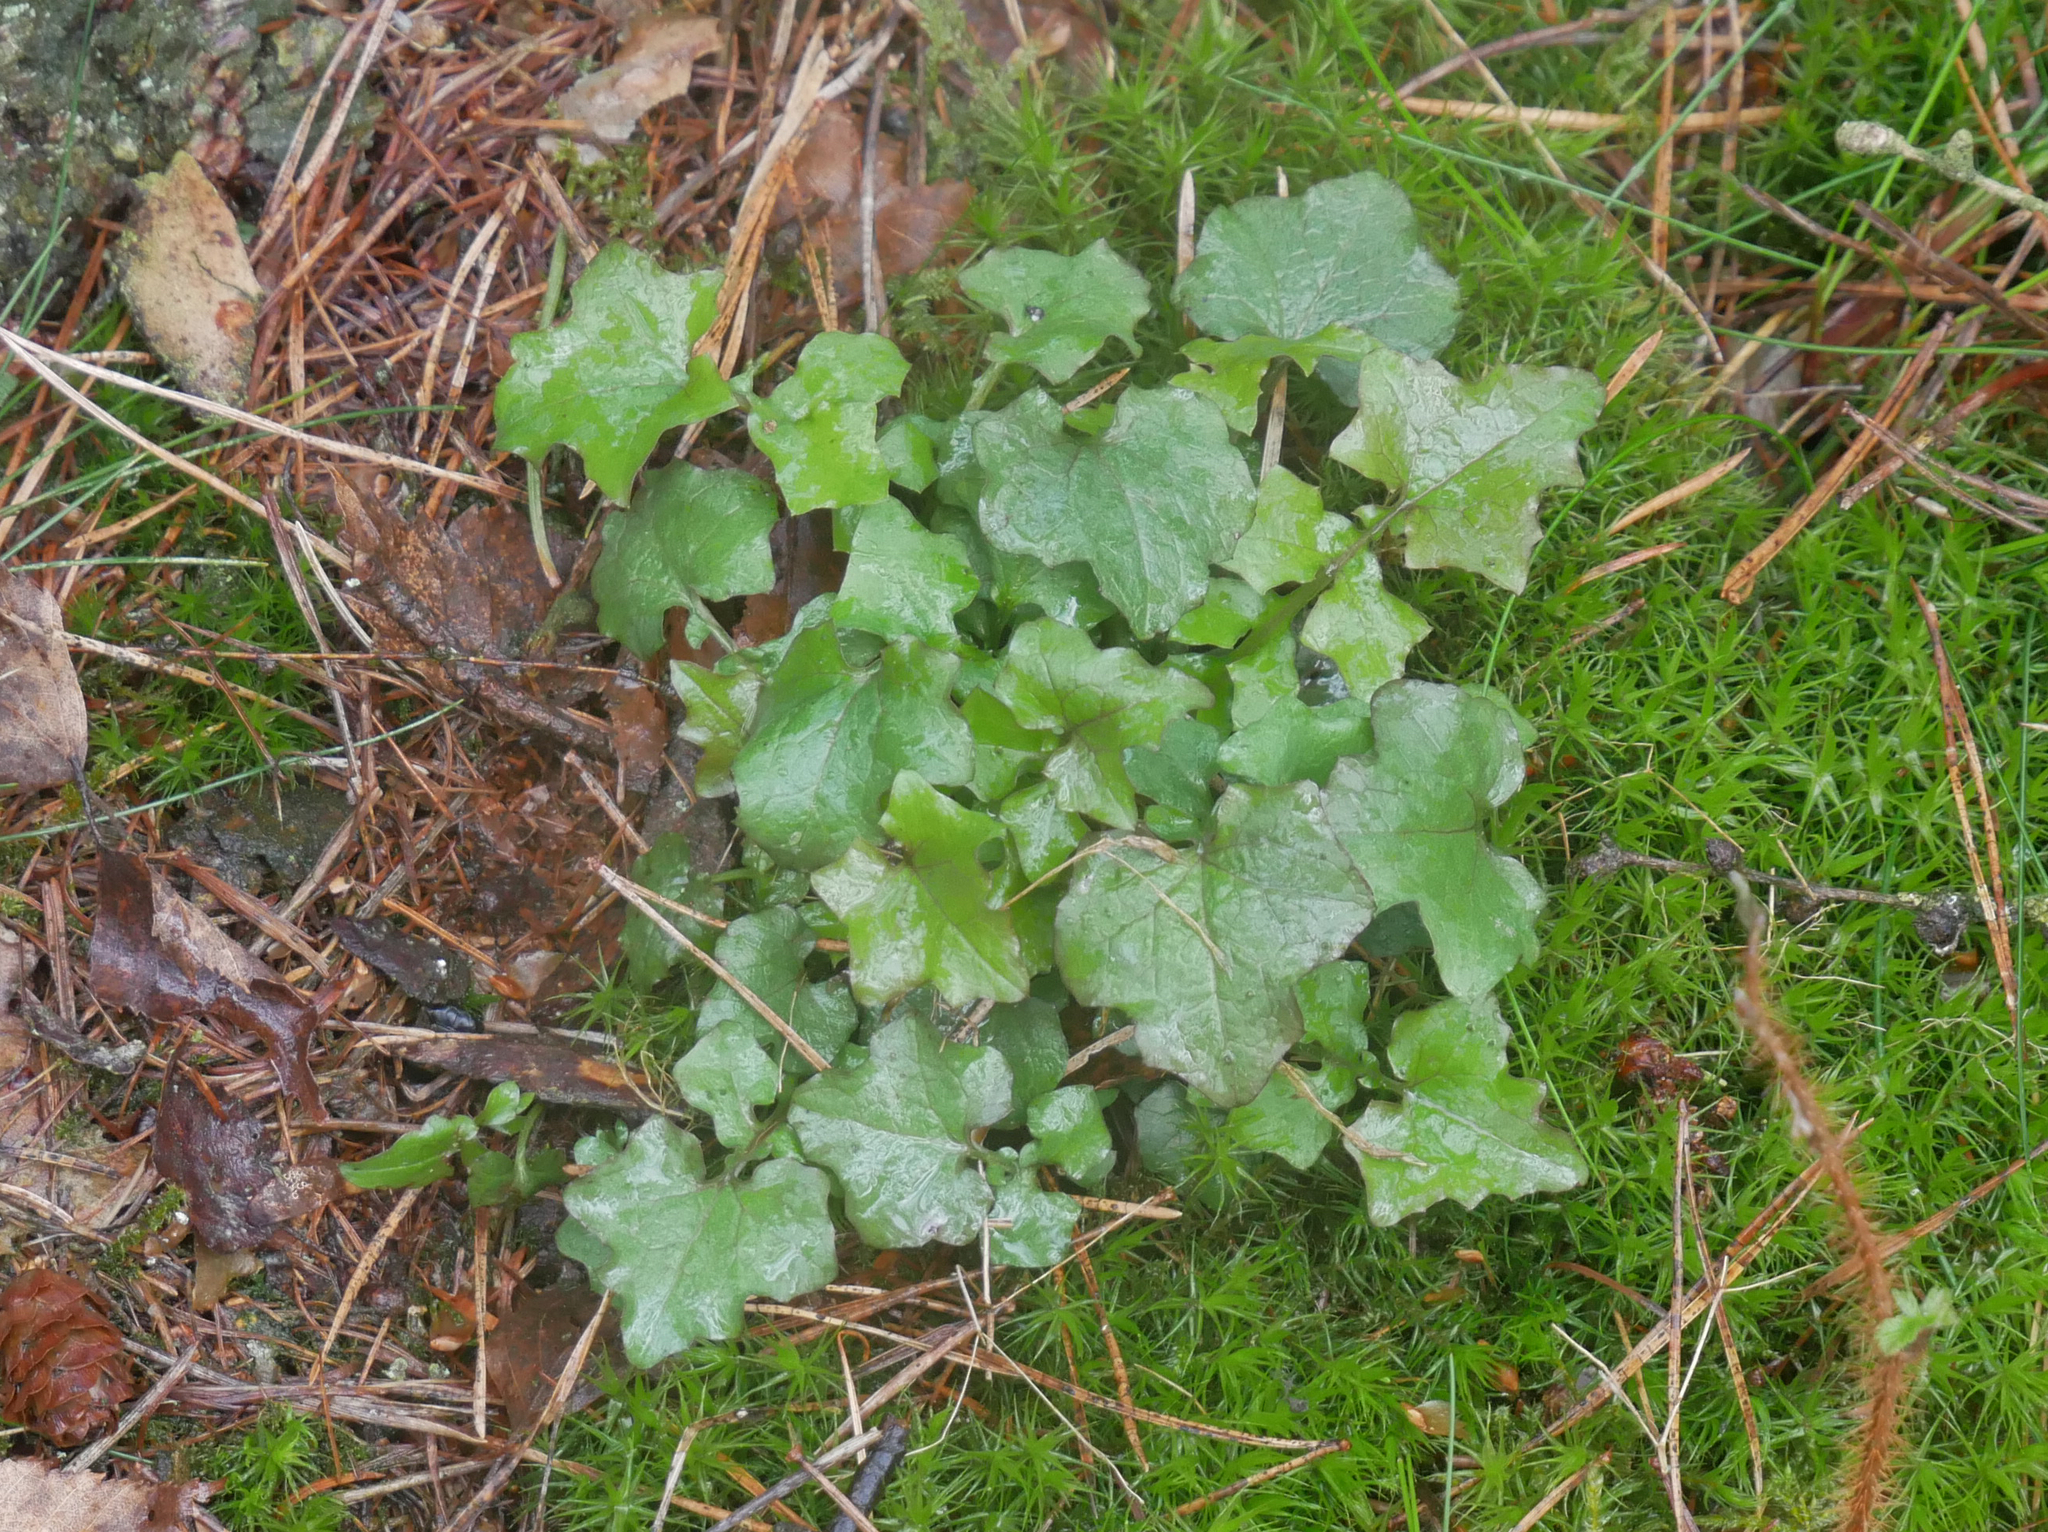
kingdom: Plantae
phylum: Tracheophyta
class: Magnoliopsida
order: Asterales
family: Asteraceae
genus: Mycelis
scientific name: Mycelis muralis
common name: Wall lettuce
